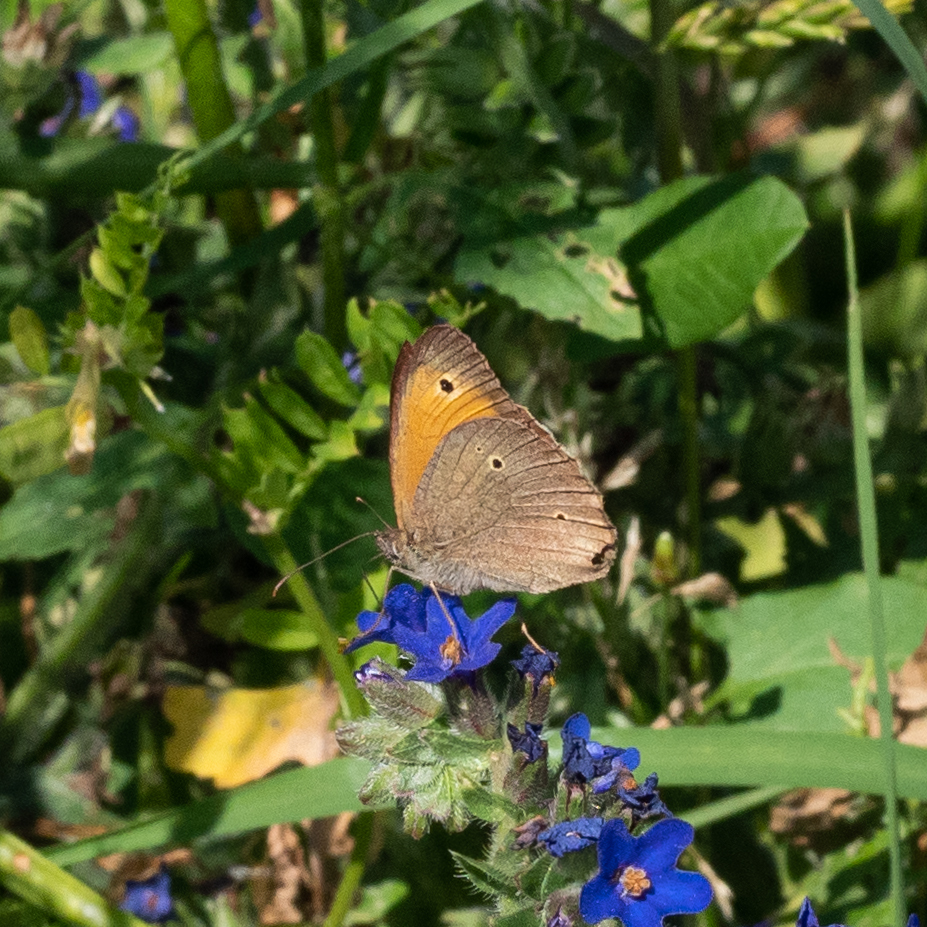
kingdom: Animalia
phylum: Arthropoda
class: Insecta
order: Lepidoptera
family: Nymphalidae
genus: Maniola
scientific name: Maniola jurtina
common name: Meadow brown
